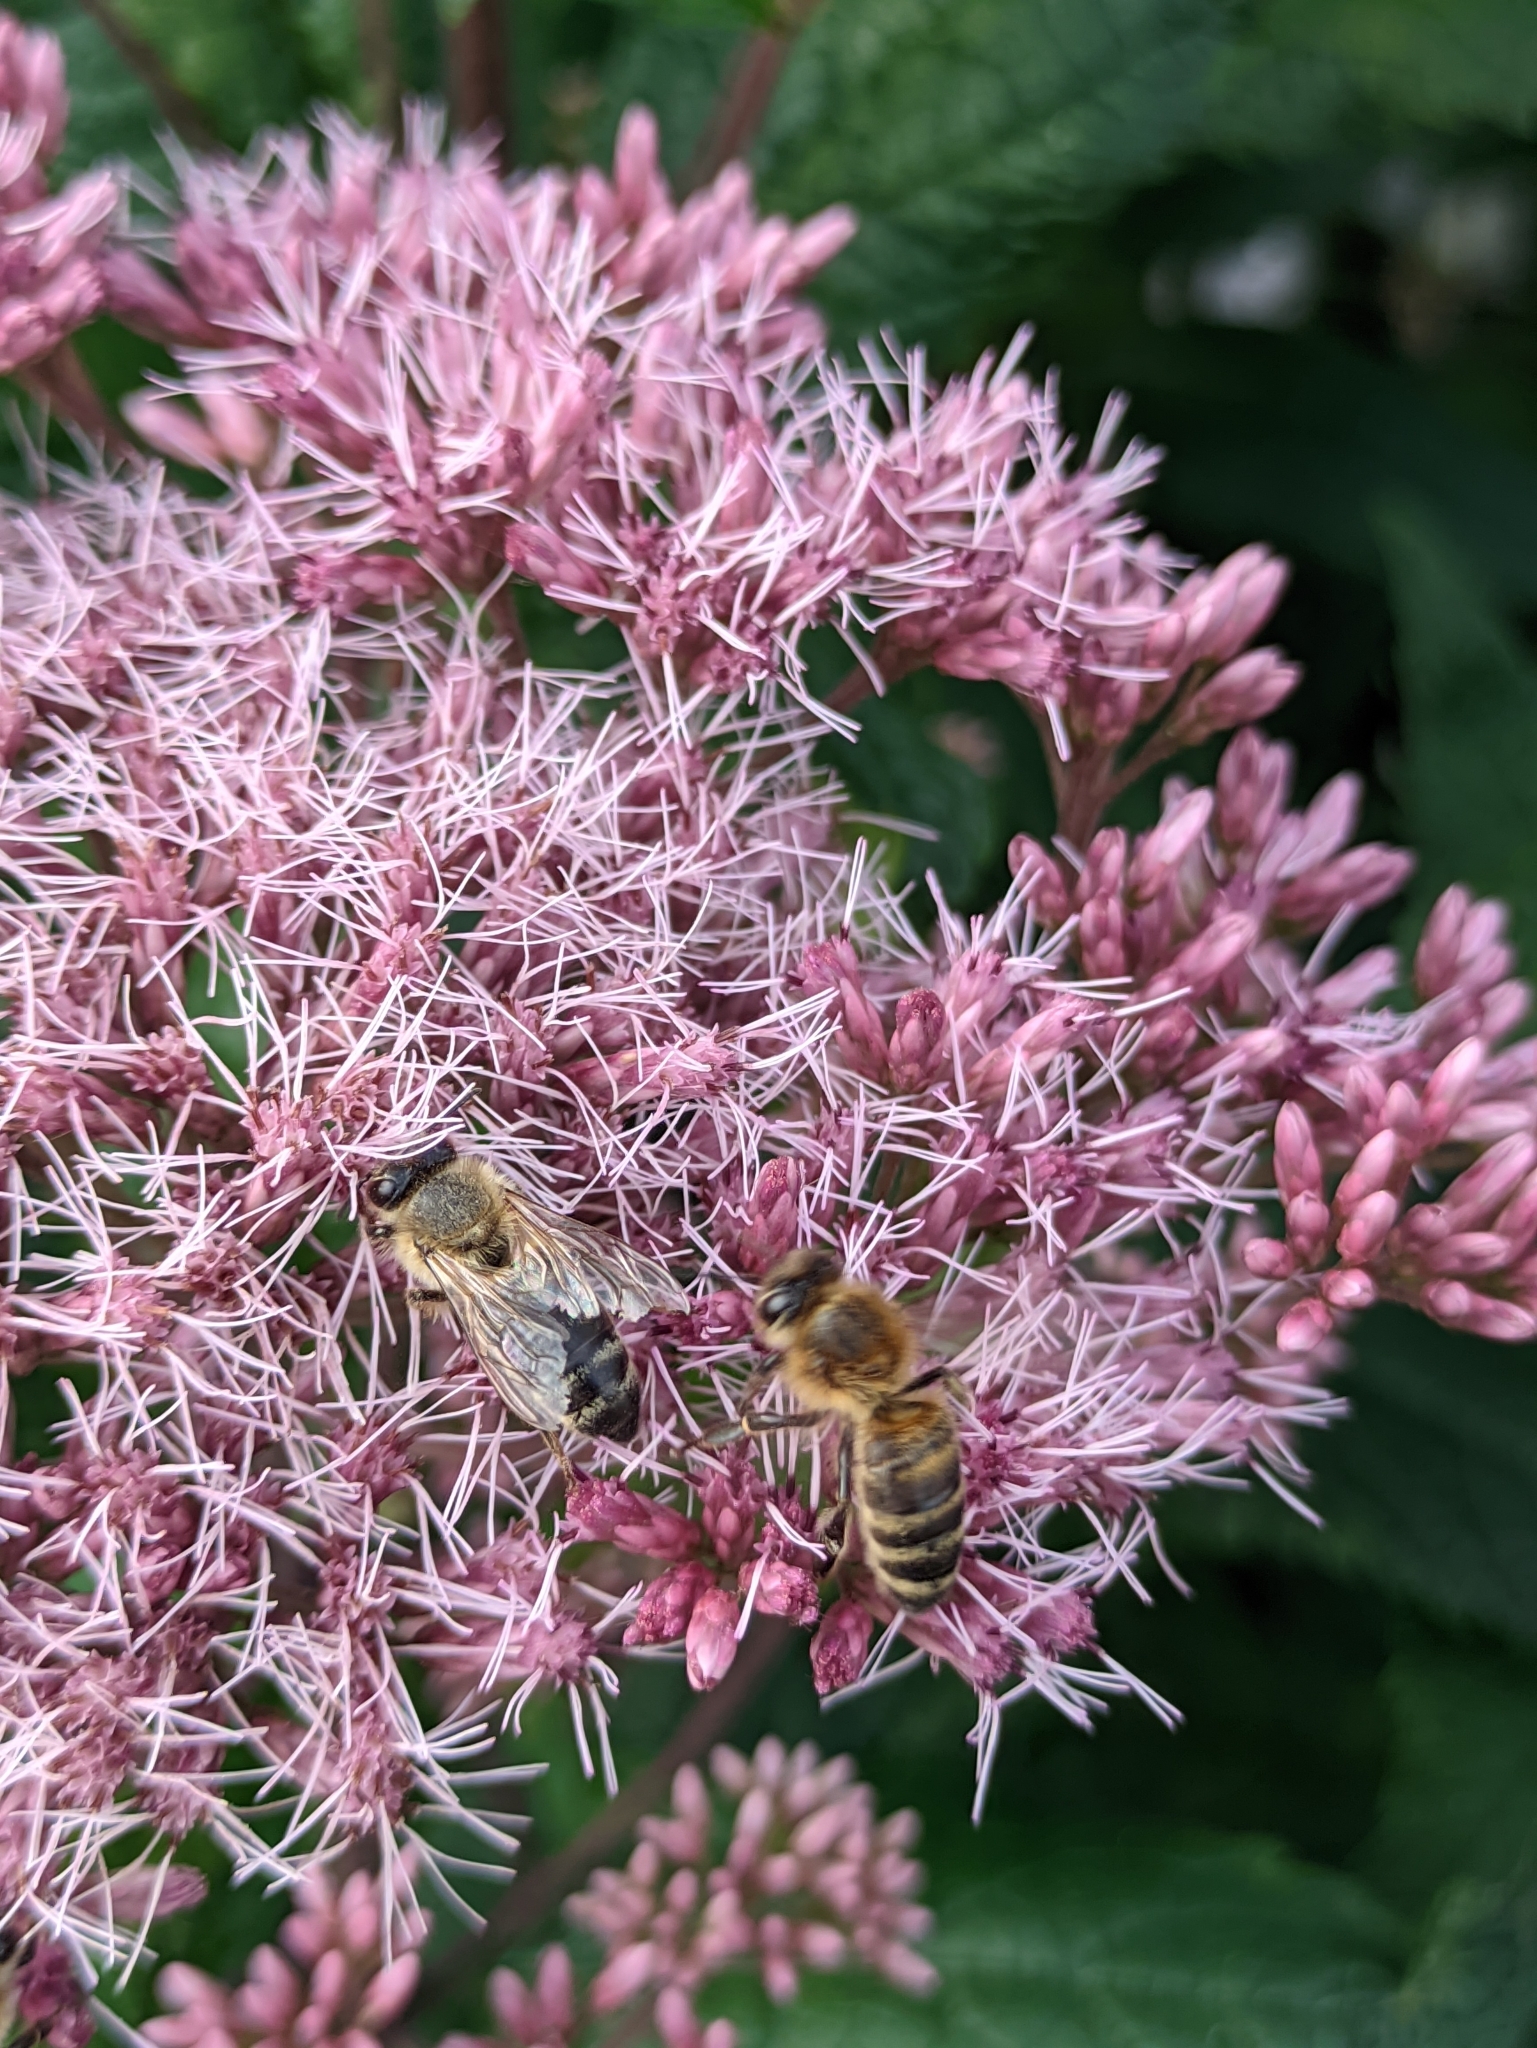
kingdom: Animalia
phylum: Arthropoda
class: Insecta
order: Hymenoptera
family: Apidae
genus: Apis
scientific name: Apis mellifera
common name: Honey bee
